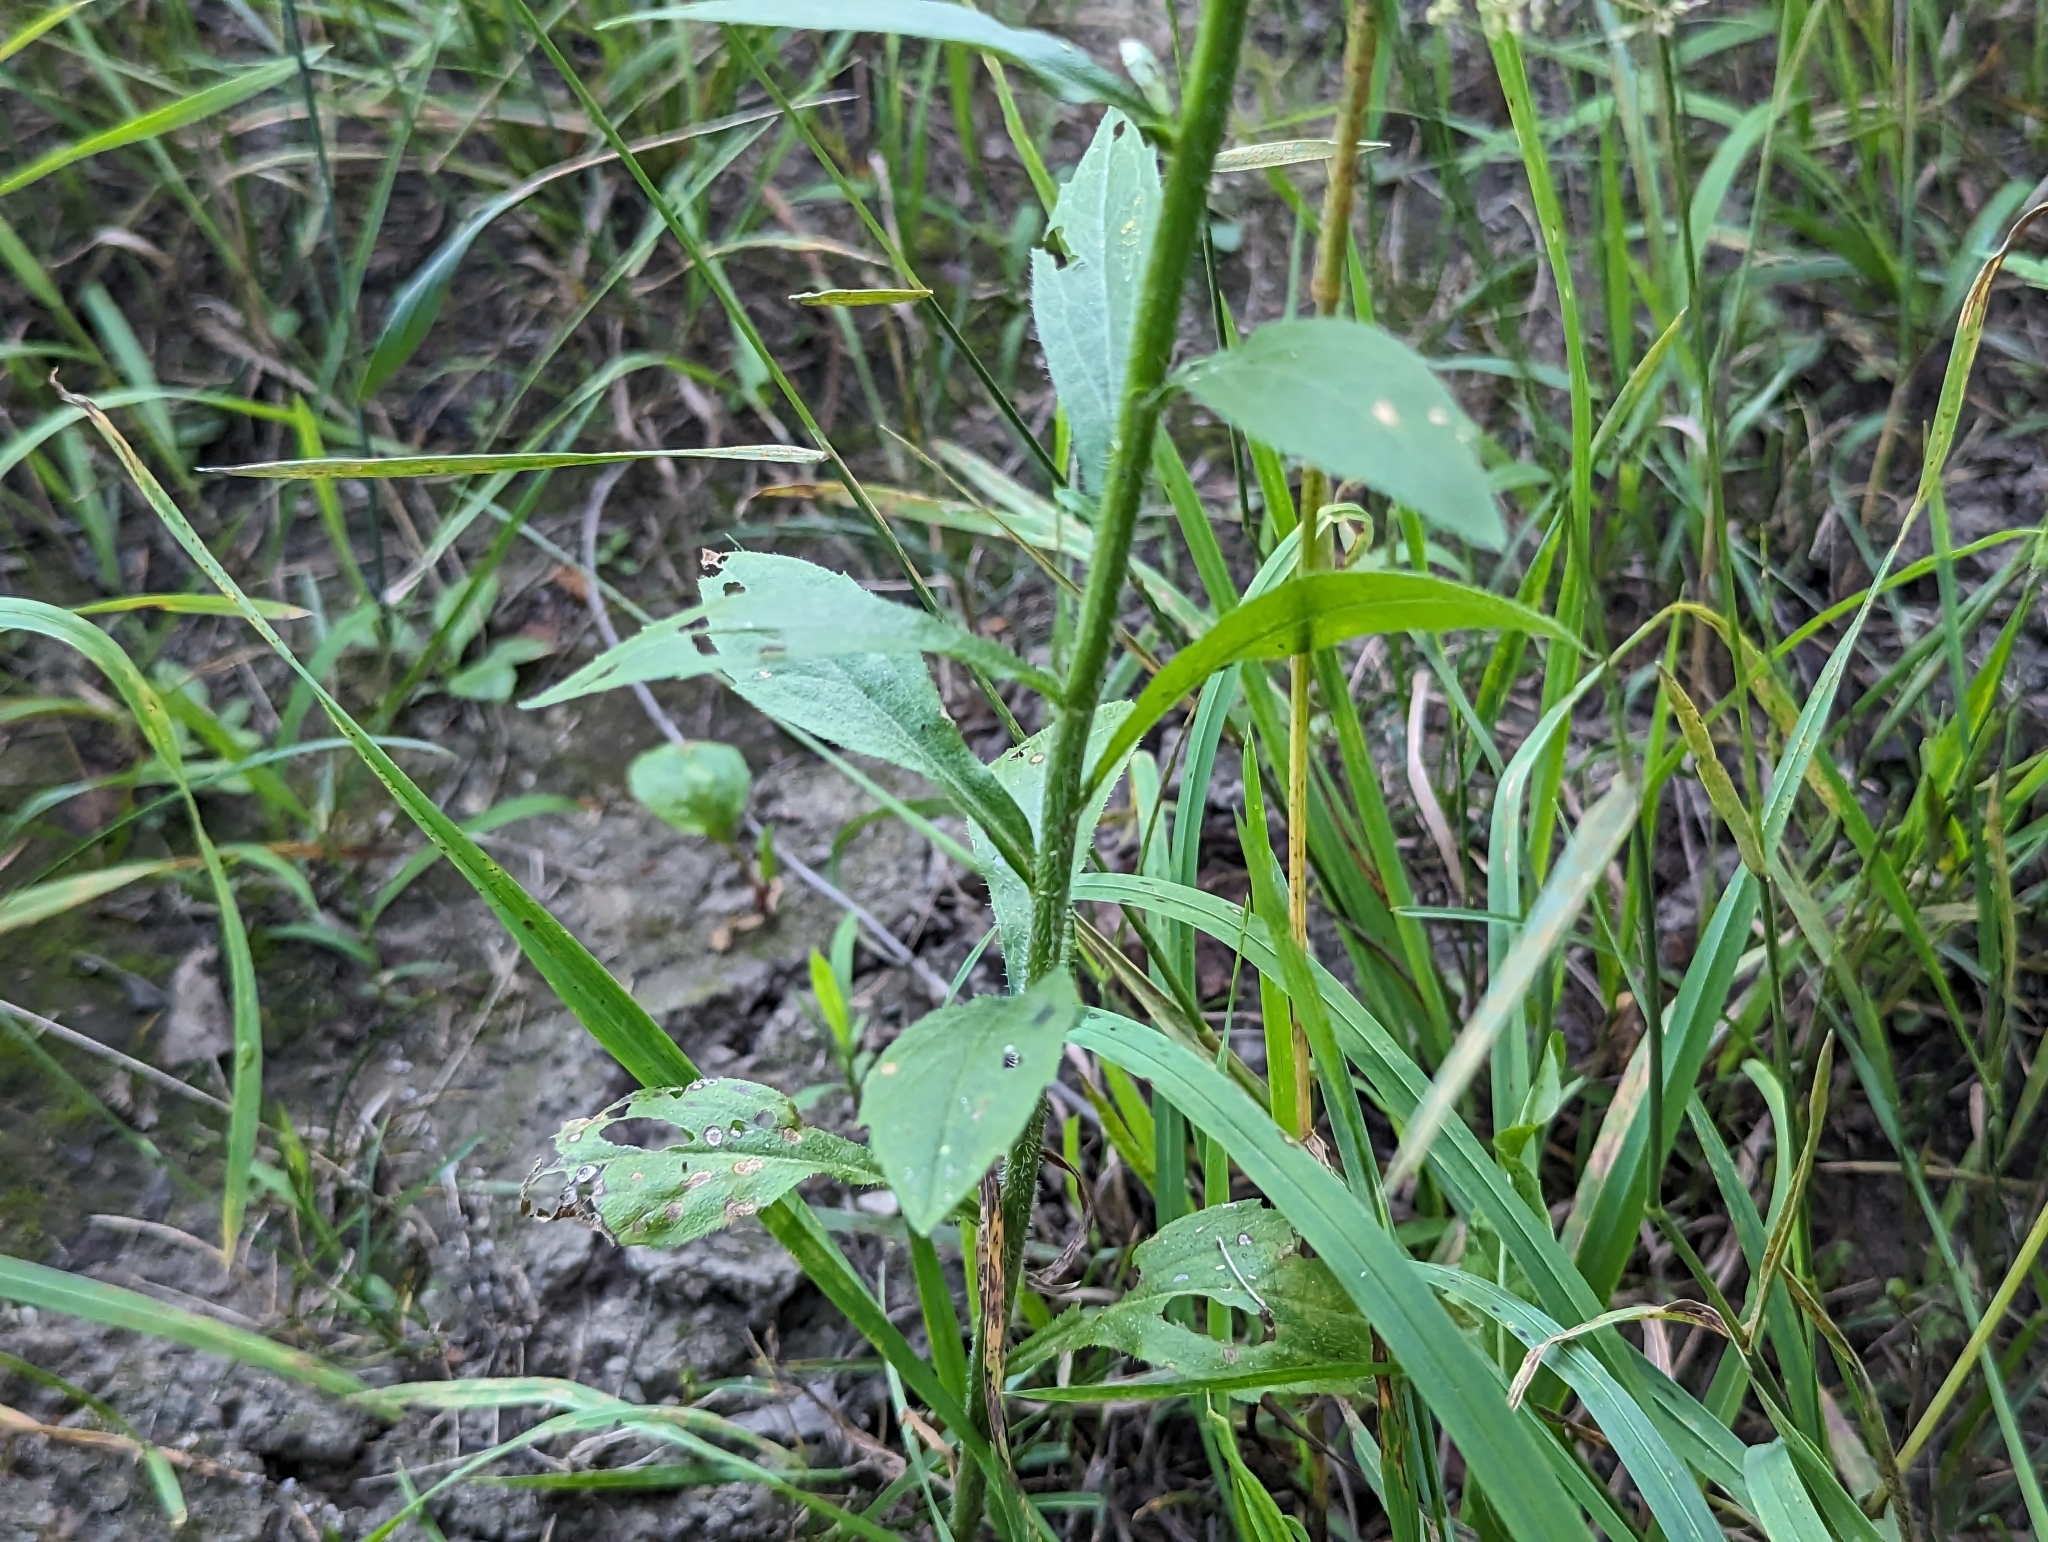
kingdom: Plantae
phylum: Tracheophyta
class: Magnoliopsida
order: Asterales
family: Asteraceae
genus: Erigeron
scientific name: Erigeron strigosus
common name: Common eastern fleabane
